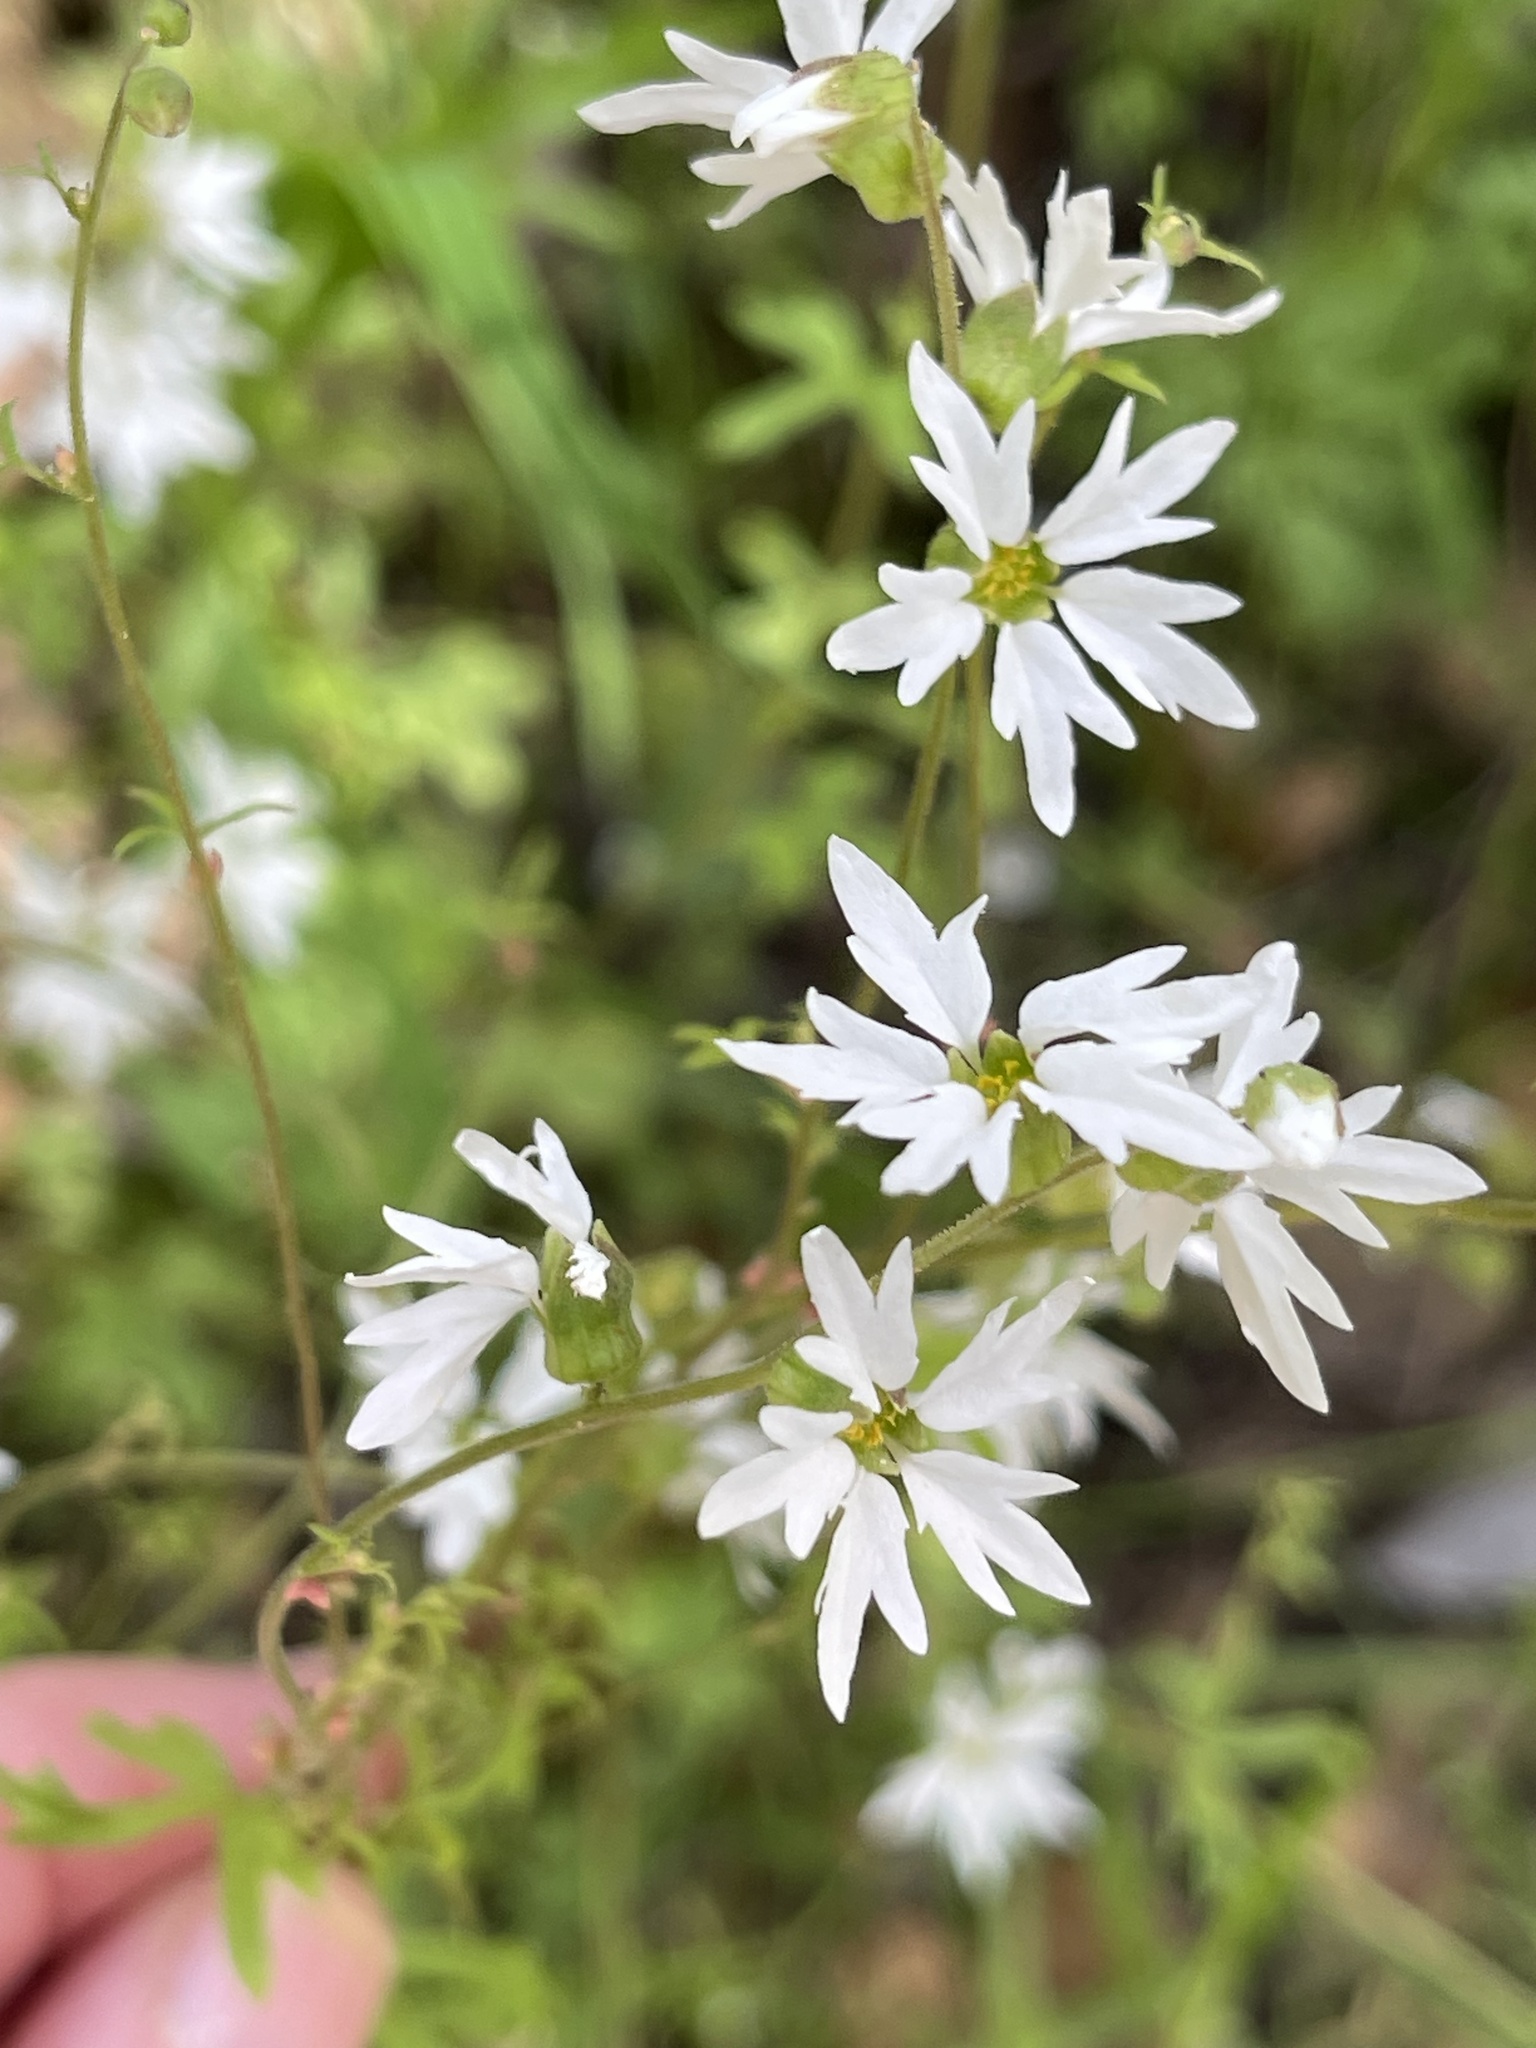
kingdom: Plantae
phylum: Tracheophyta
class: Magnoliopsida
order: Saxifragales
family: Saxifragaceae
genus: Lithophragma
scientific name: Lithophragma heterophyllum
